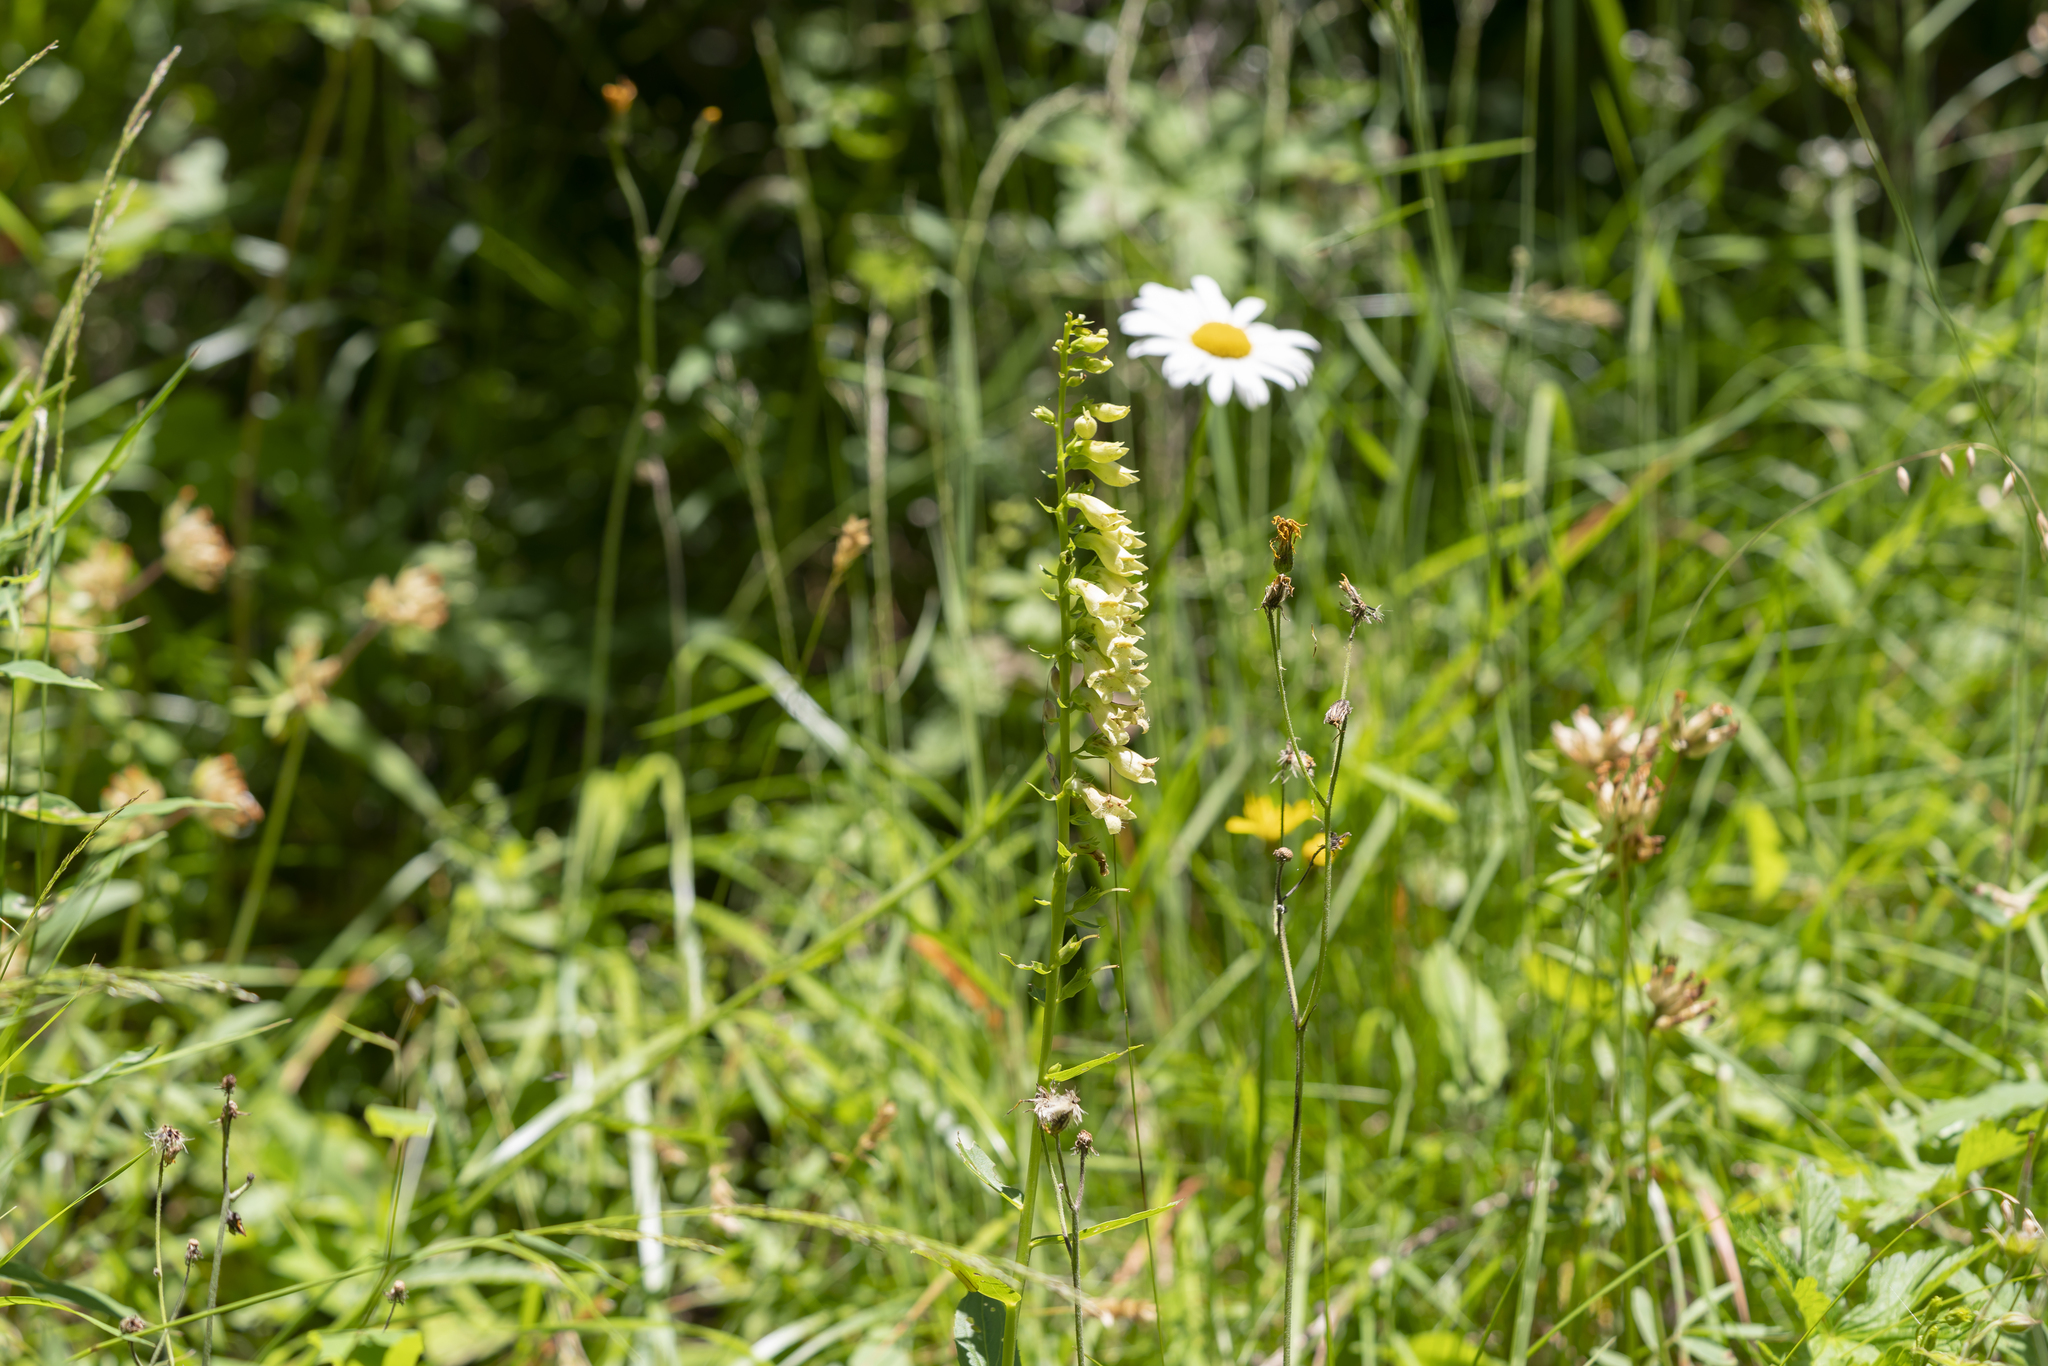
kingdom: Plantae
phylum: Tracheophyta
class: Magnoliopsida
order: Lamiales
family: Plantaginaceae
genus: Digitalis
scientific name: Digitalis lutea
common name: Straw foxglove
